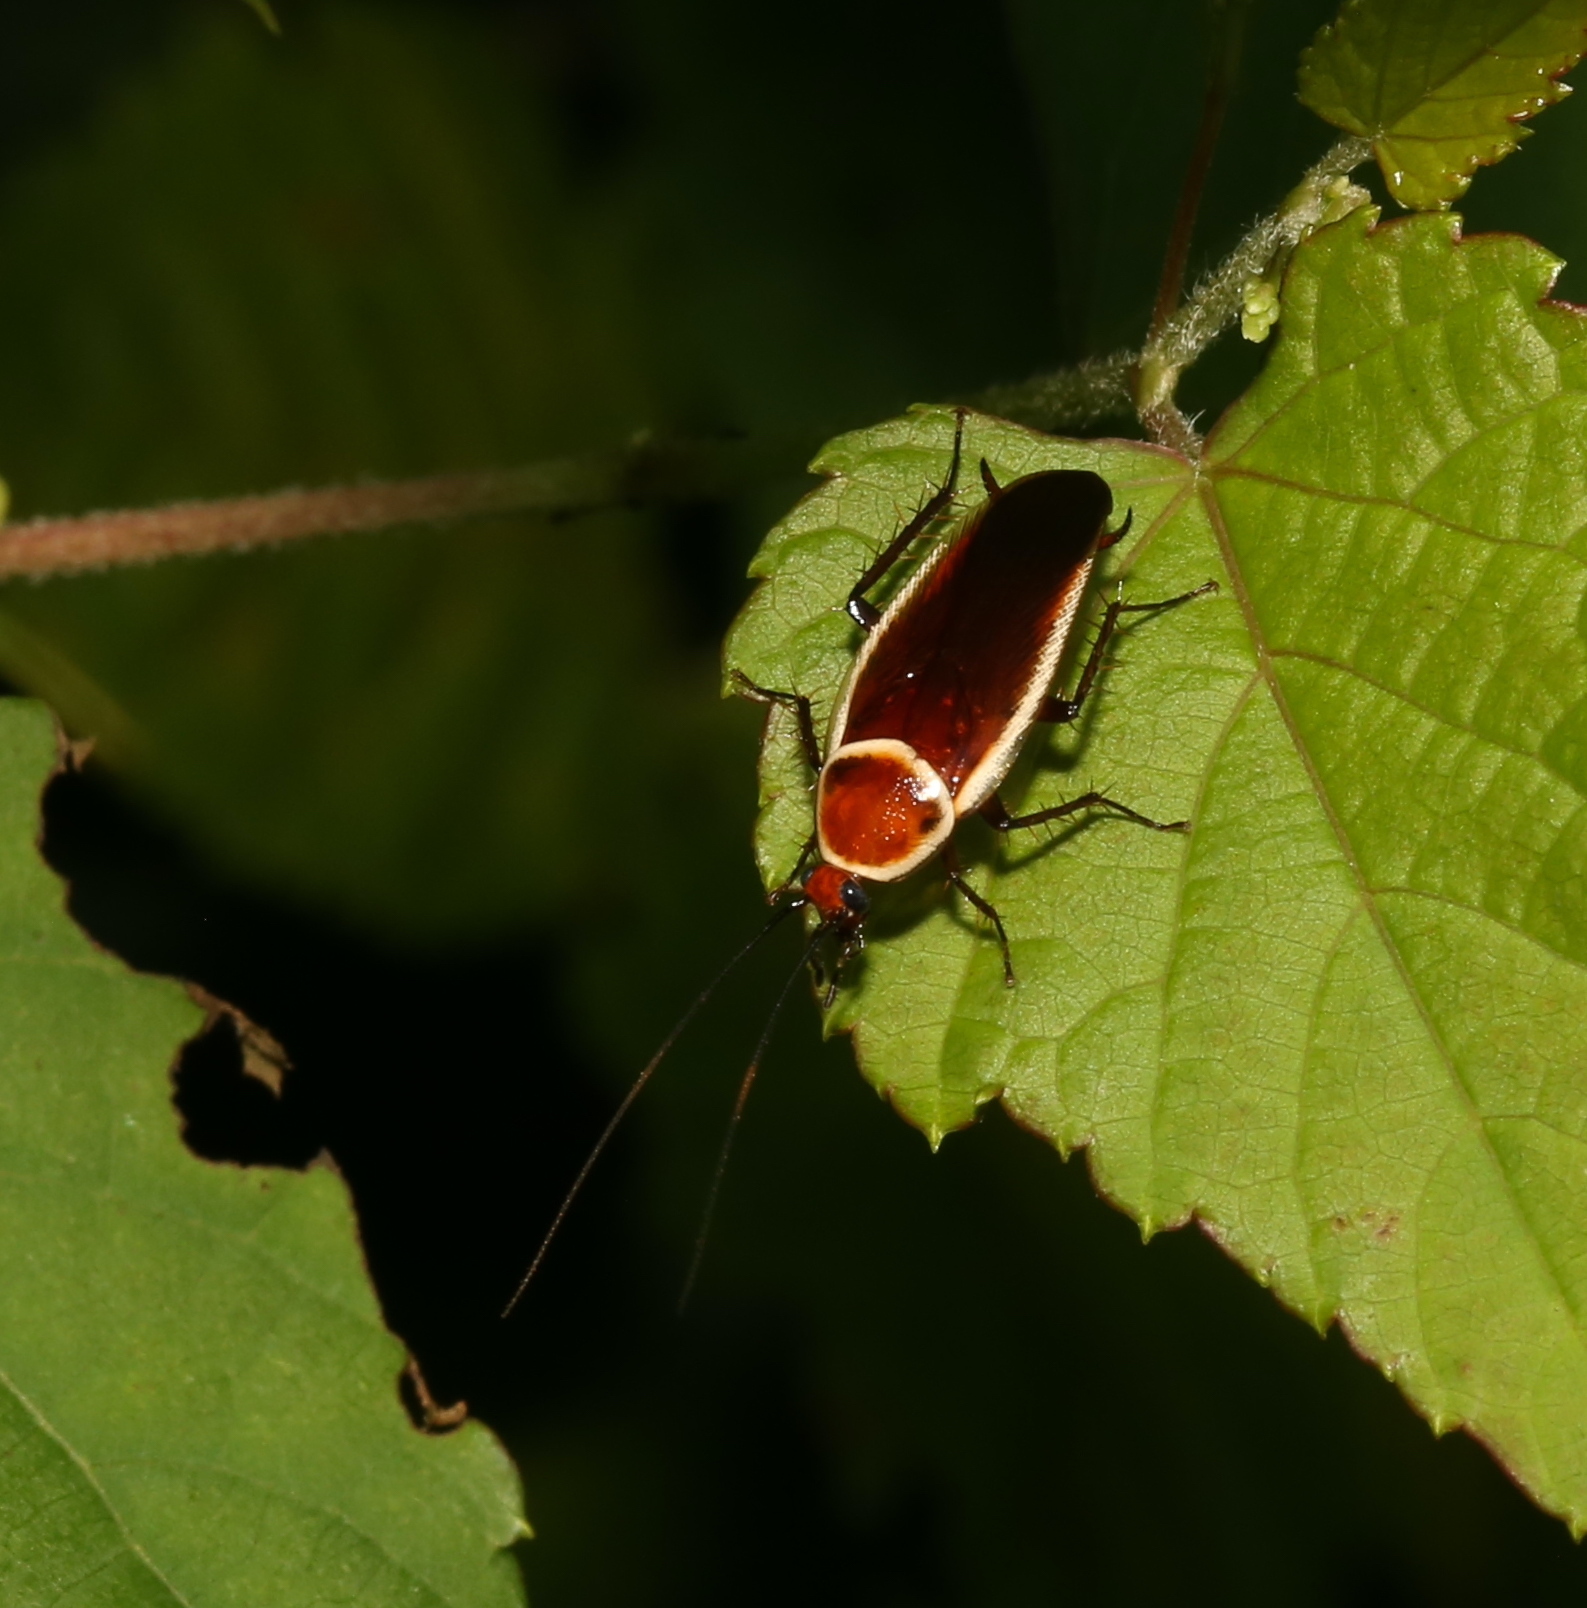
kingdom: Animalia
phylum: Arthropoda
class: Insecta
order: Blattodea
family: Ectobiidae
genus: Pseudomops
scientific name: Pseudomops septentrionalis
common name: Pale-bordered field cockroach
